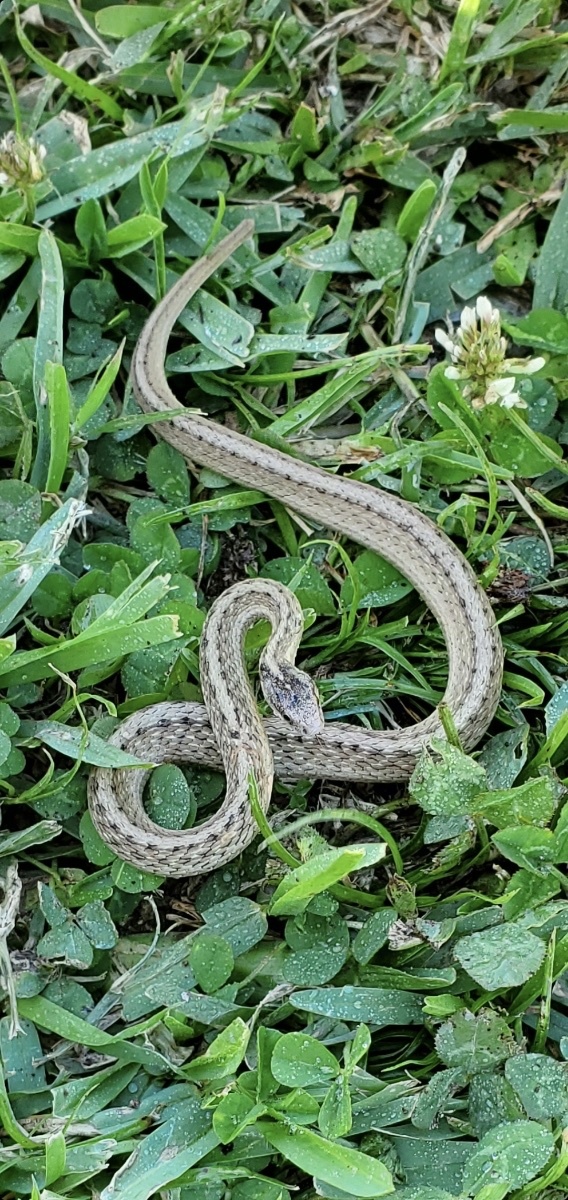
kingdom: Animalia
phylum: Chordata
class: Squamata
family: Colubridae
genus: Storeria
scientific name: Storeria dekayi
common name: (dekay’s) brown snake
